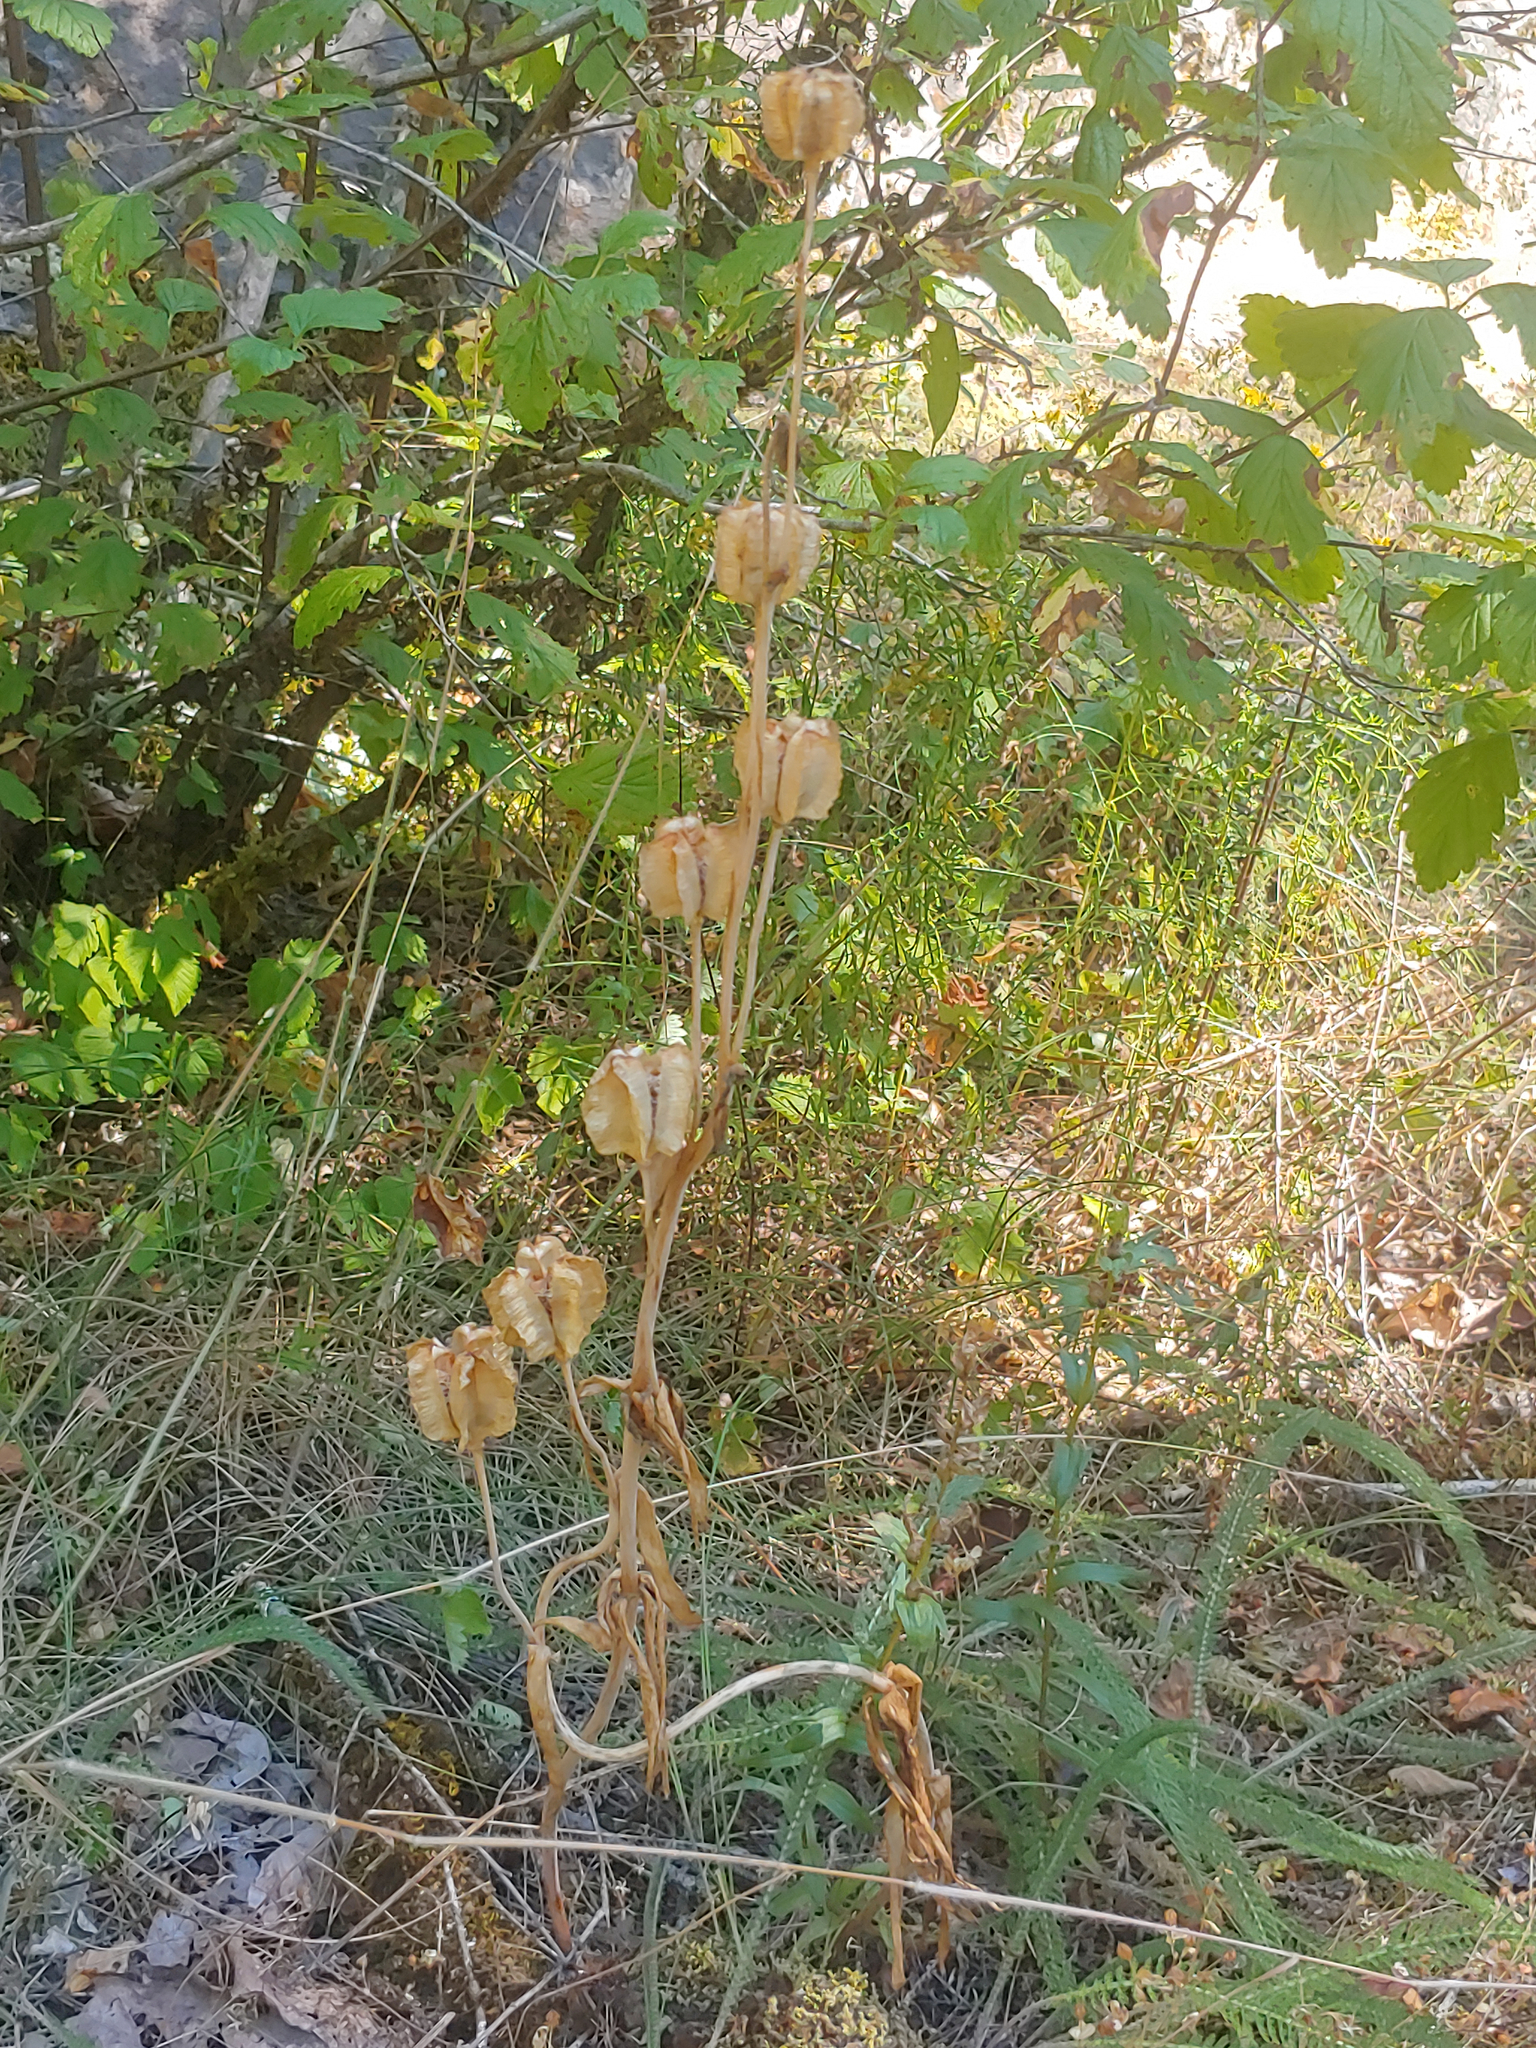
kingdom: Plantae
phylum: Tracheophyta
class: Liliopsida
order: Liliales
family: Liliaceae
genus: Fritillaria
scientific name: Fritillaria affinis
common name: Ojai fritillary
